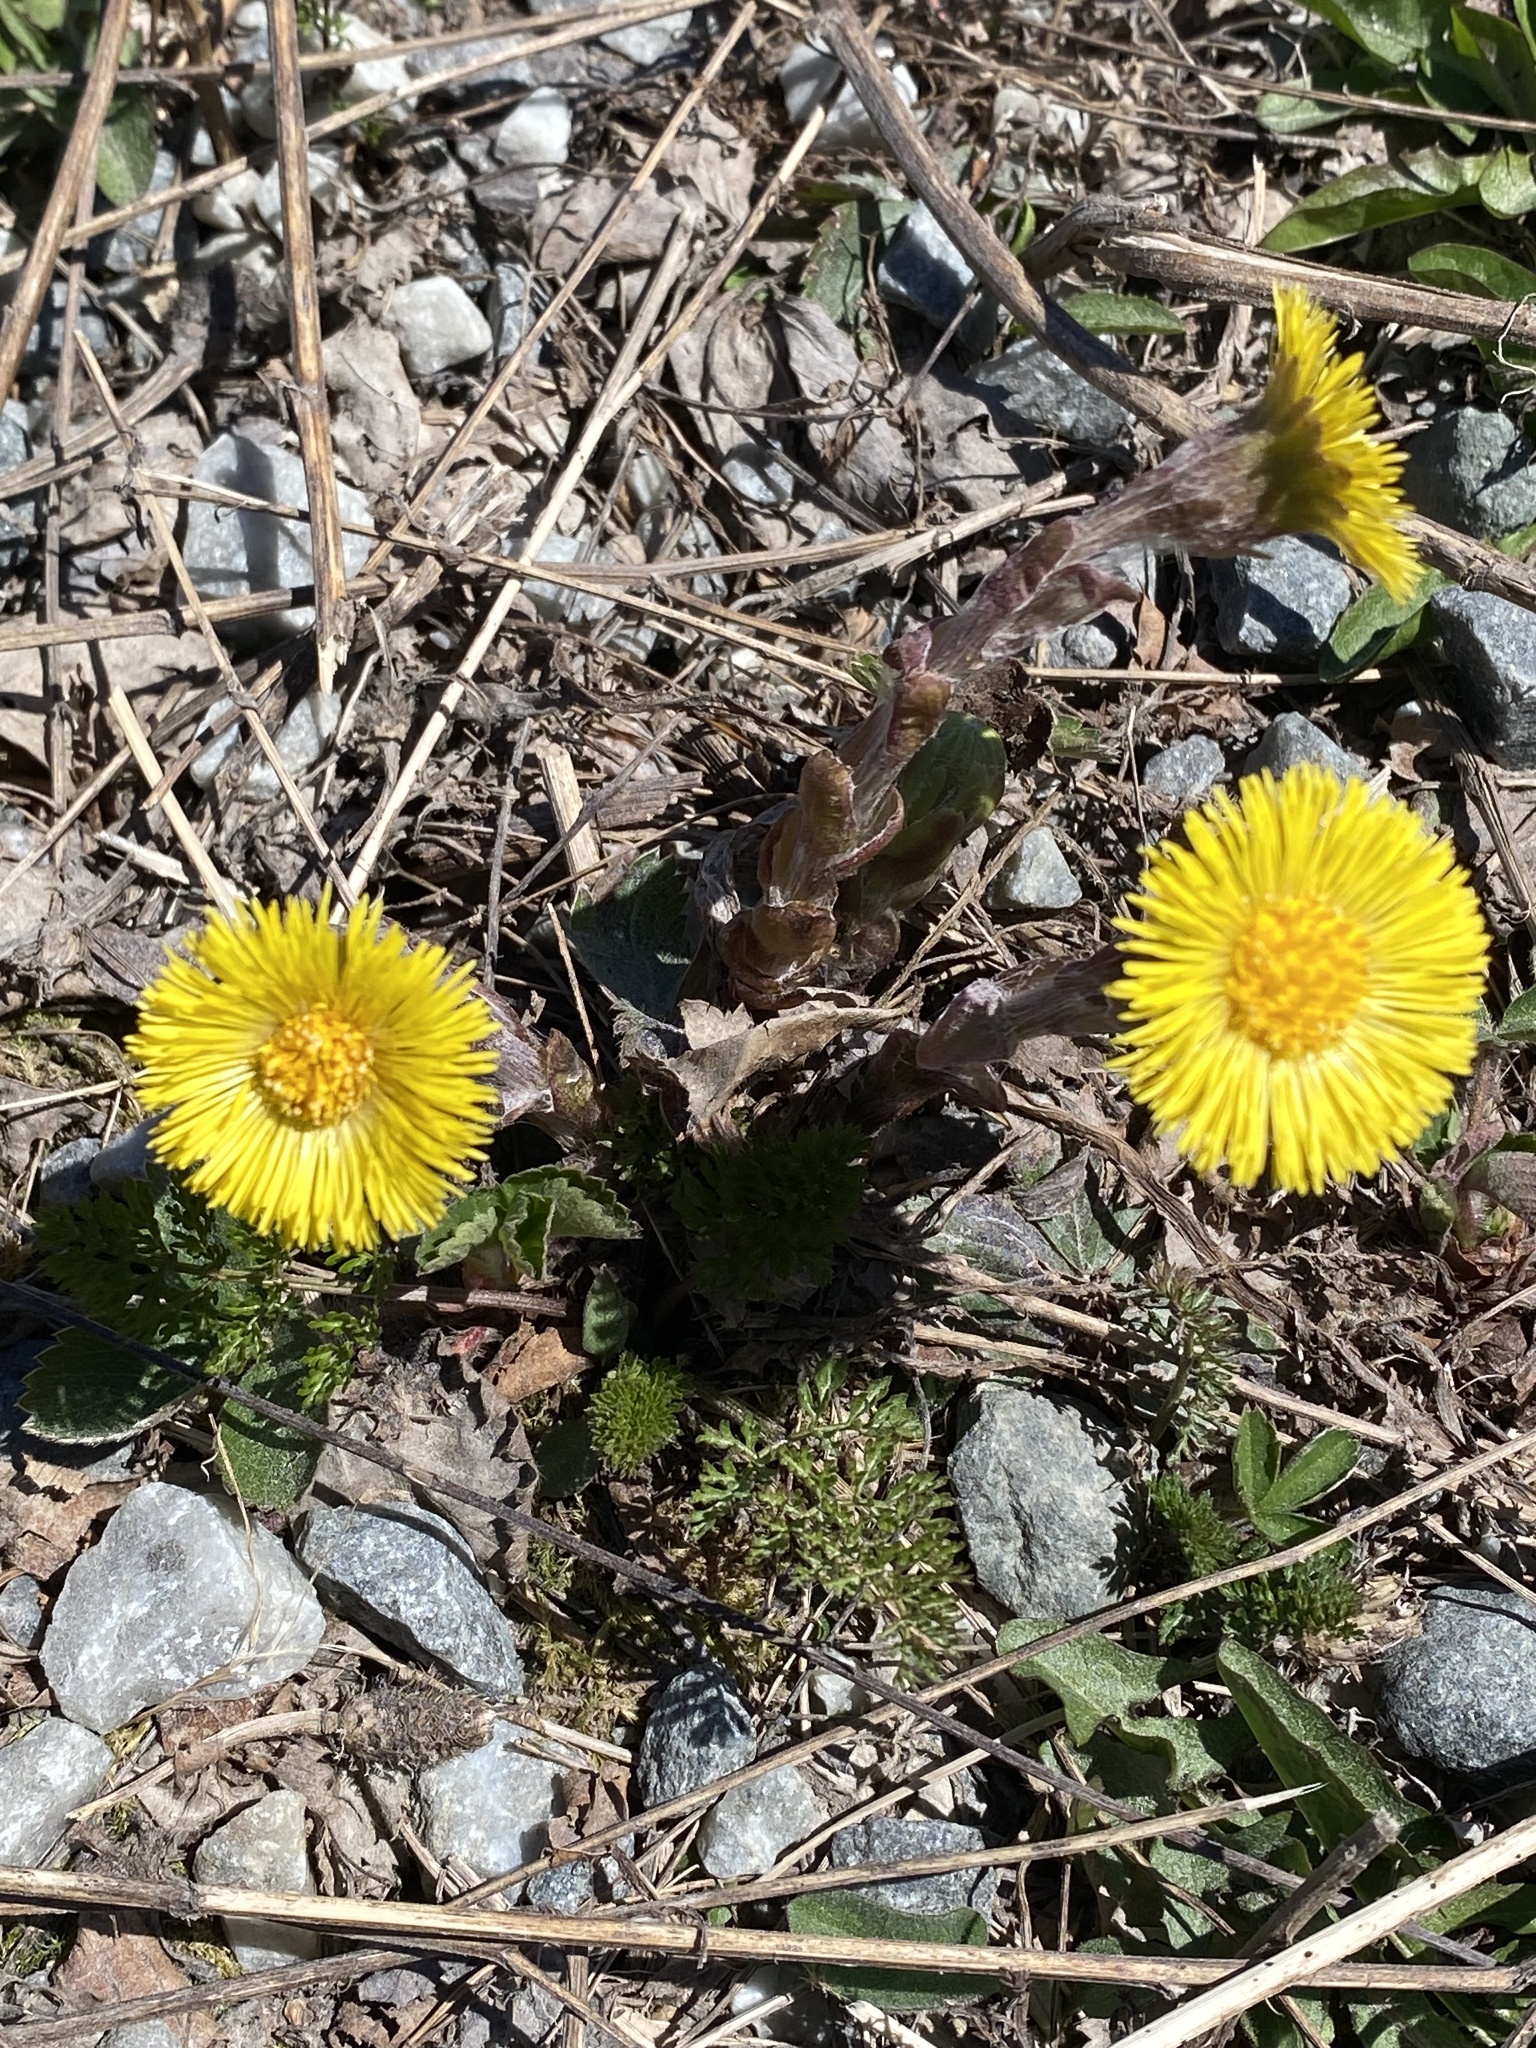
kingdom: Plantae
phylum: Tracheophyta
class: Magnoliopsida
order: Asterales
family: Asteraceae
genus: Tussilago
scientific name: Tussilago farfara
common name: Coltsfoot
